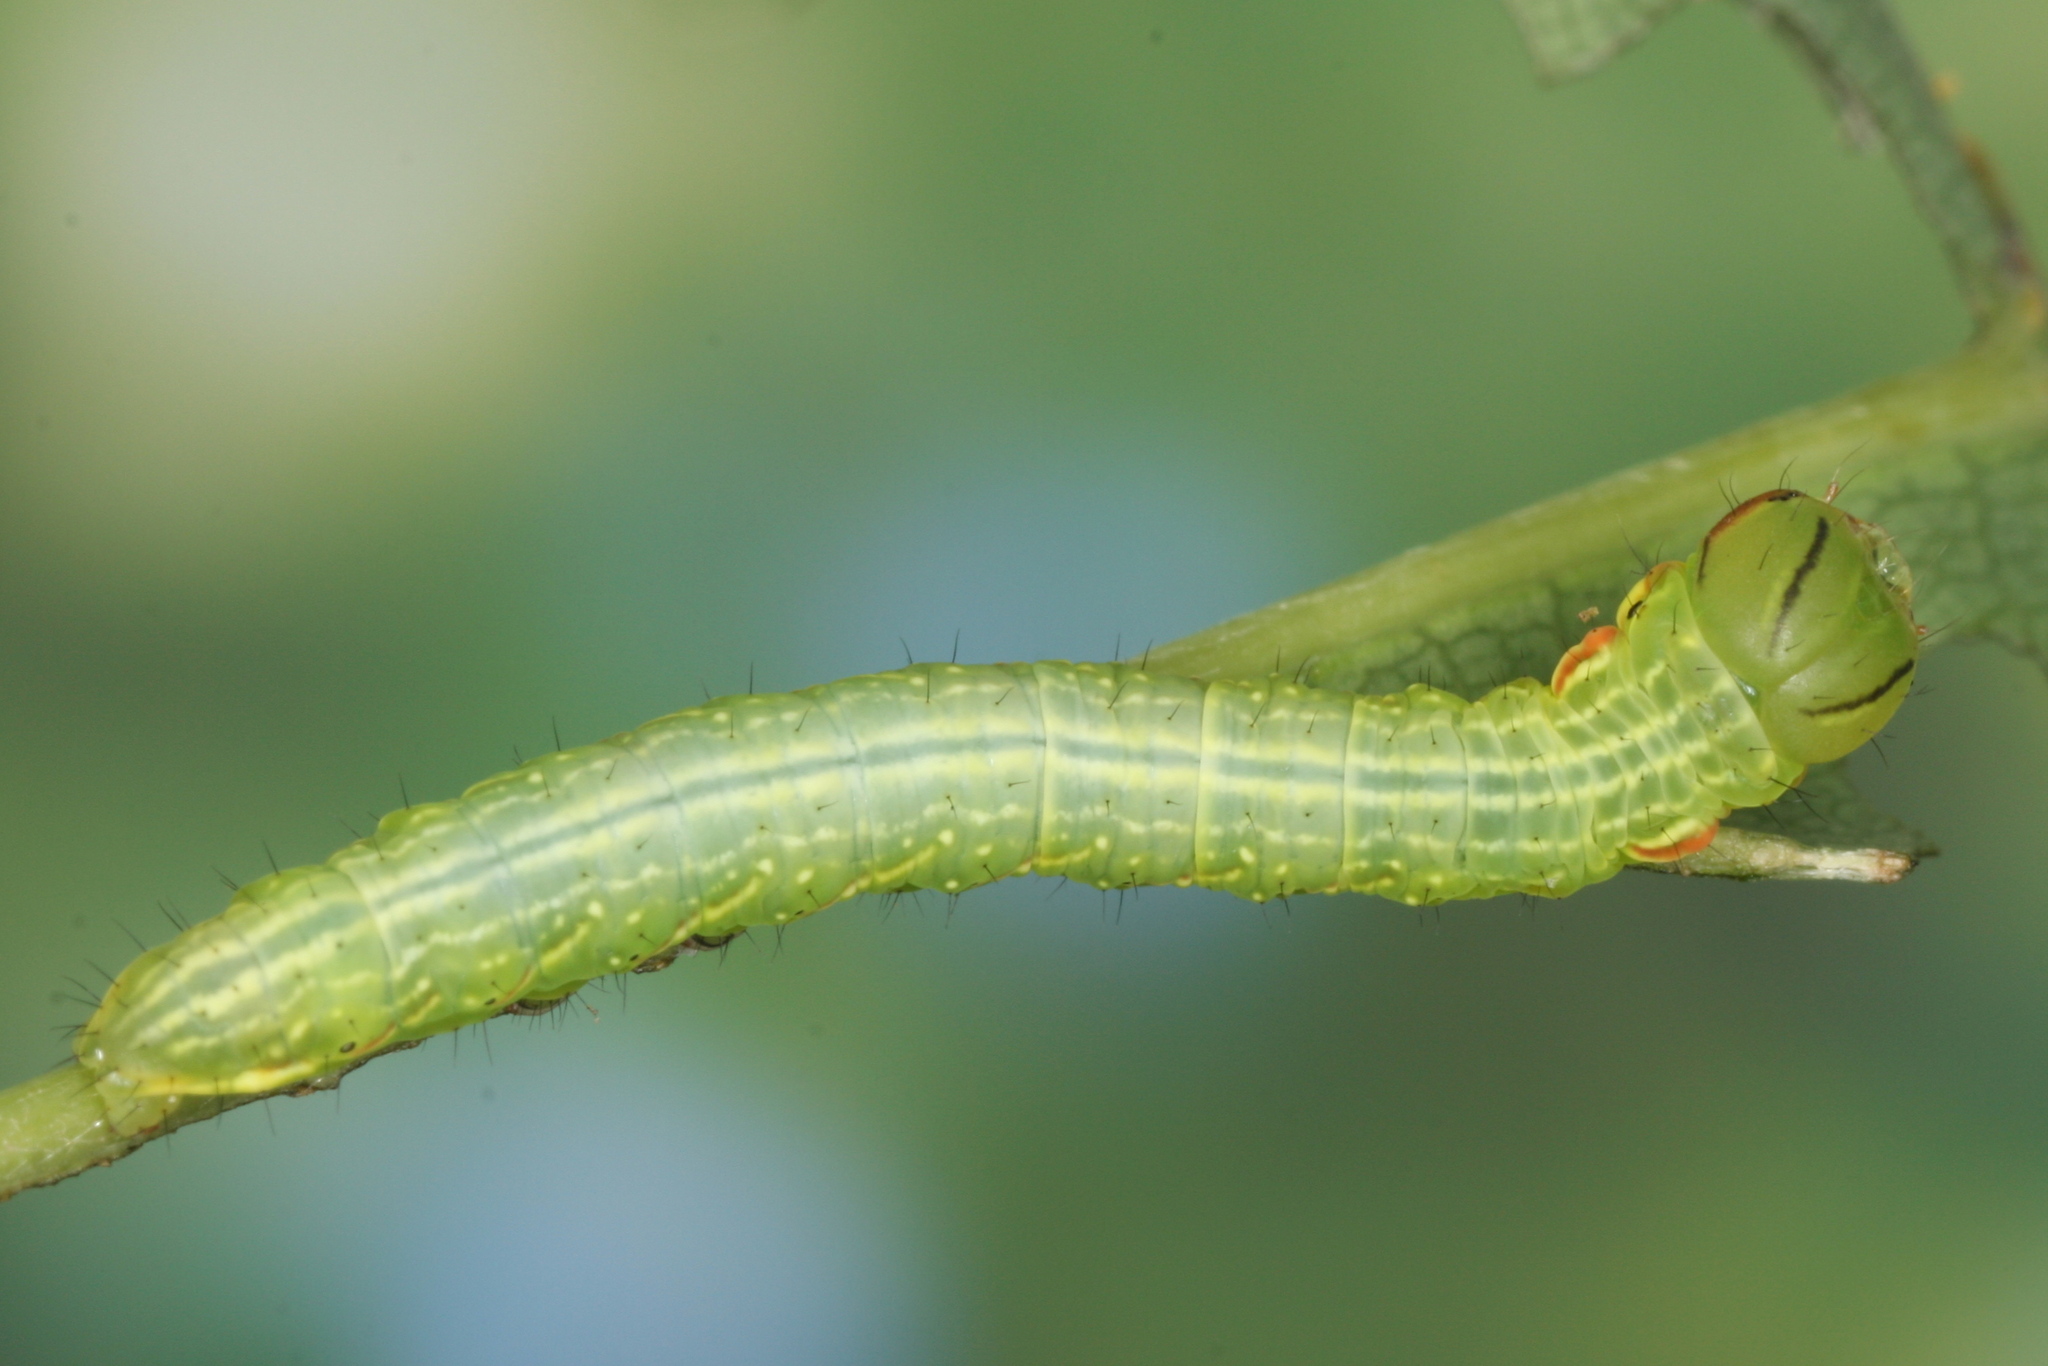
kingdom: Animalia
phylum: Arthropoda
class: Insecta
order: Lepidoptera
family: Notodontidae
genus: Peridea
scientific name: Peridea anceps
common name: Great prominent
